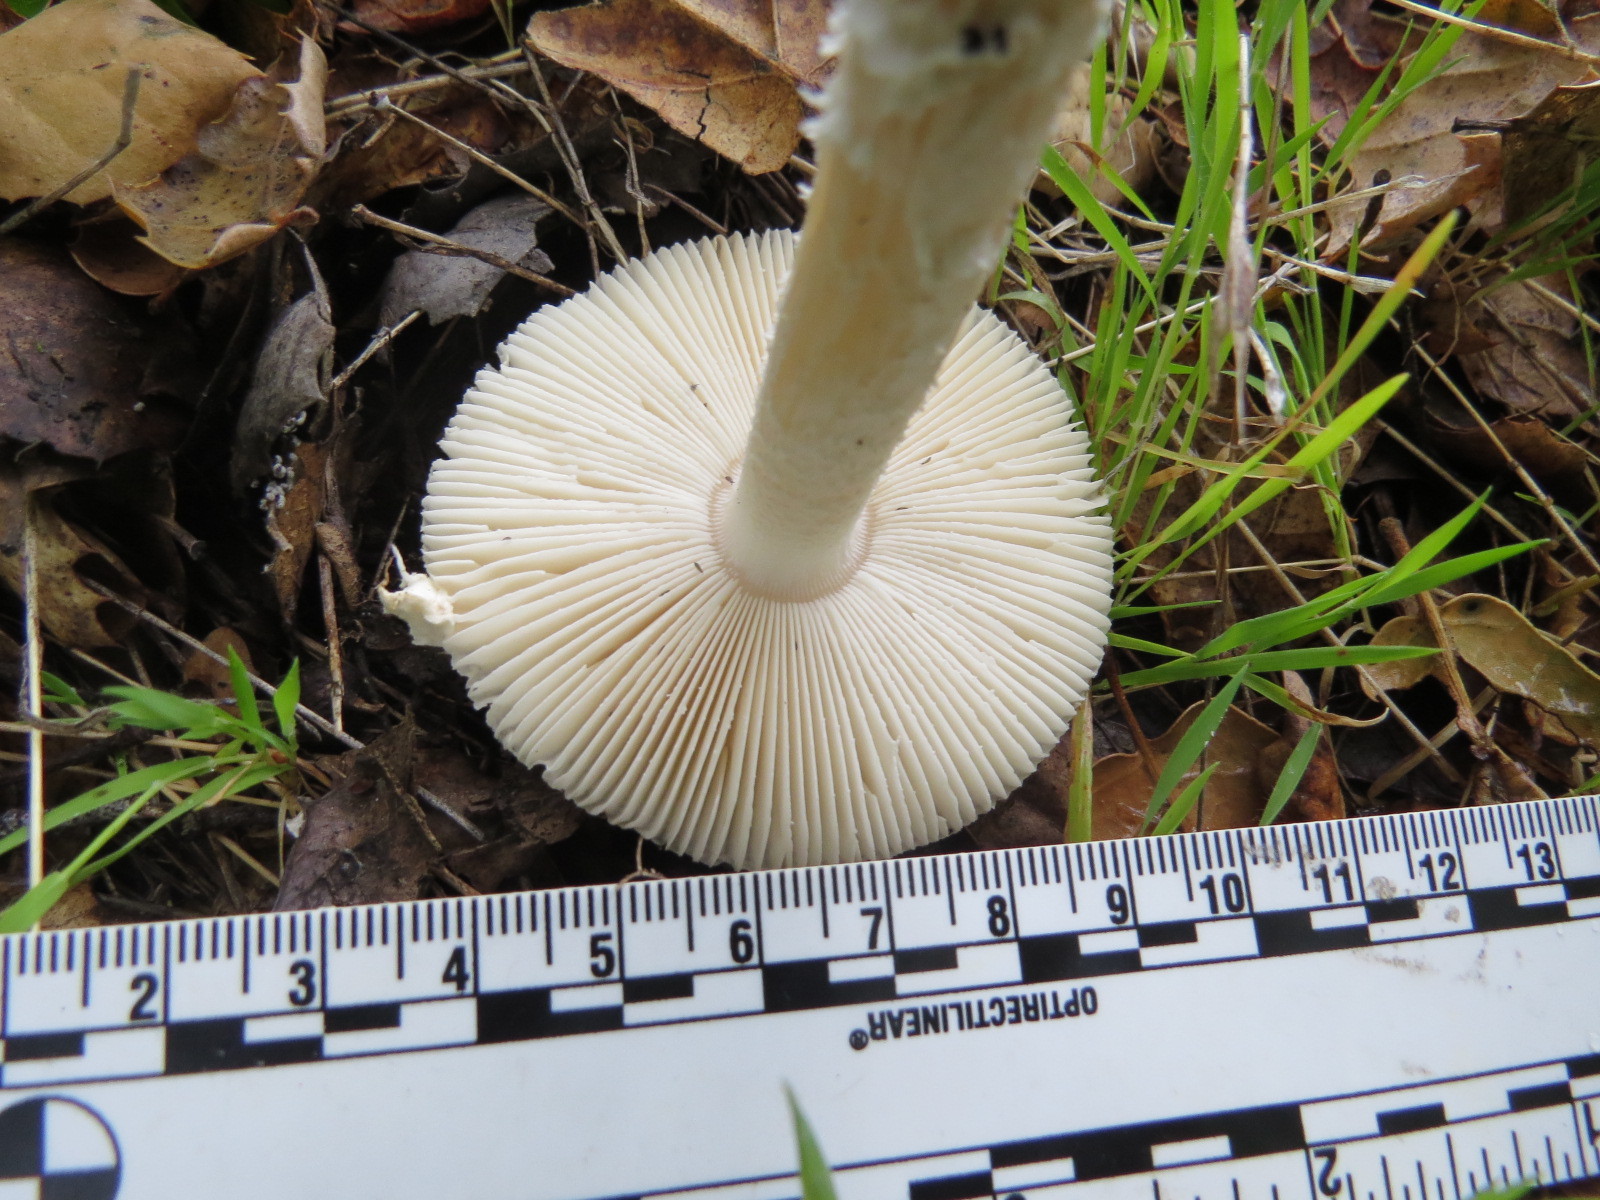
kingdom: Fungi
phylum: Basidiomycota
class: Agaricomycetes
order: Agaricales
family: Amanitaceae
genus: Amanita
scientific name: Amanita velosa
